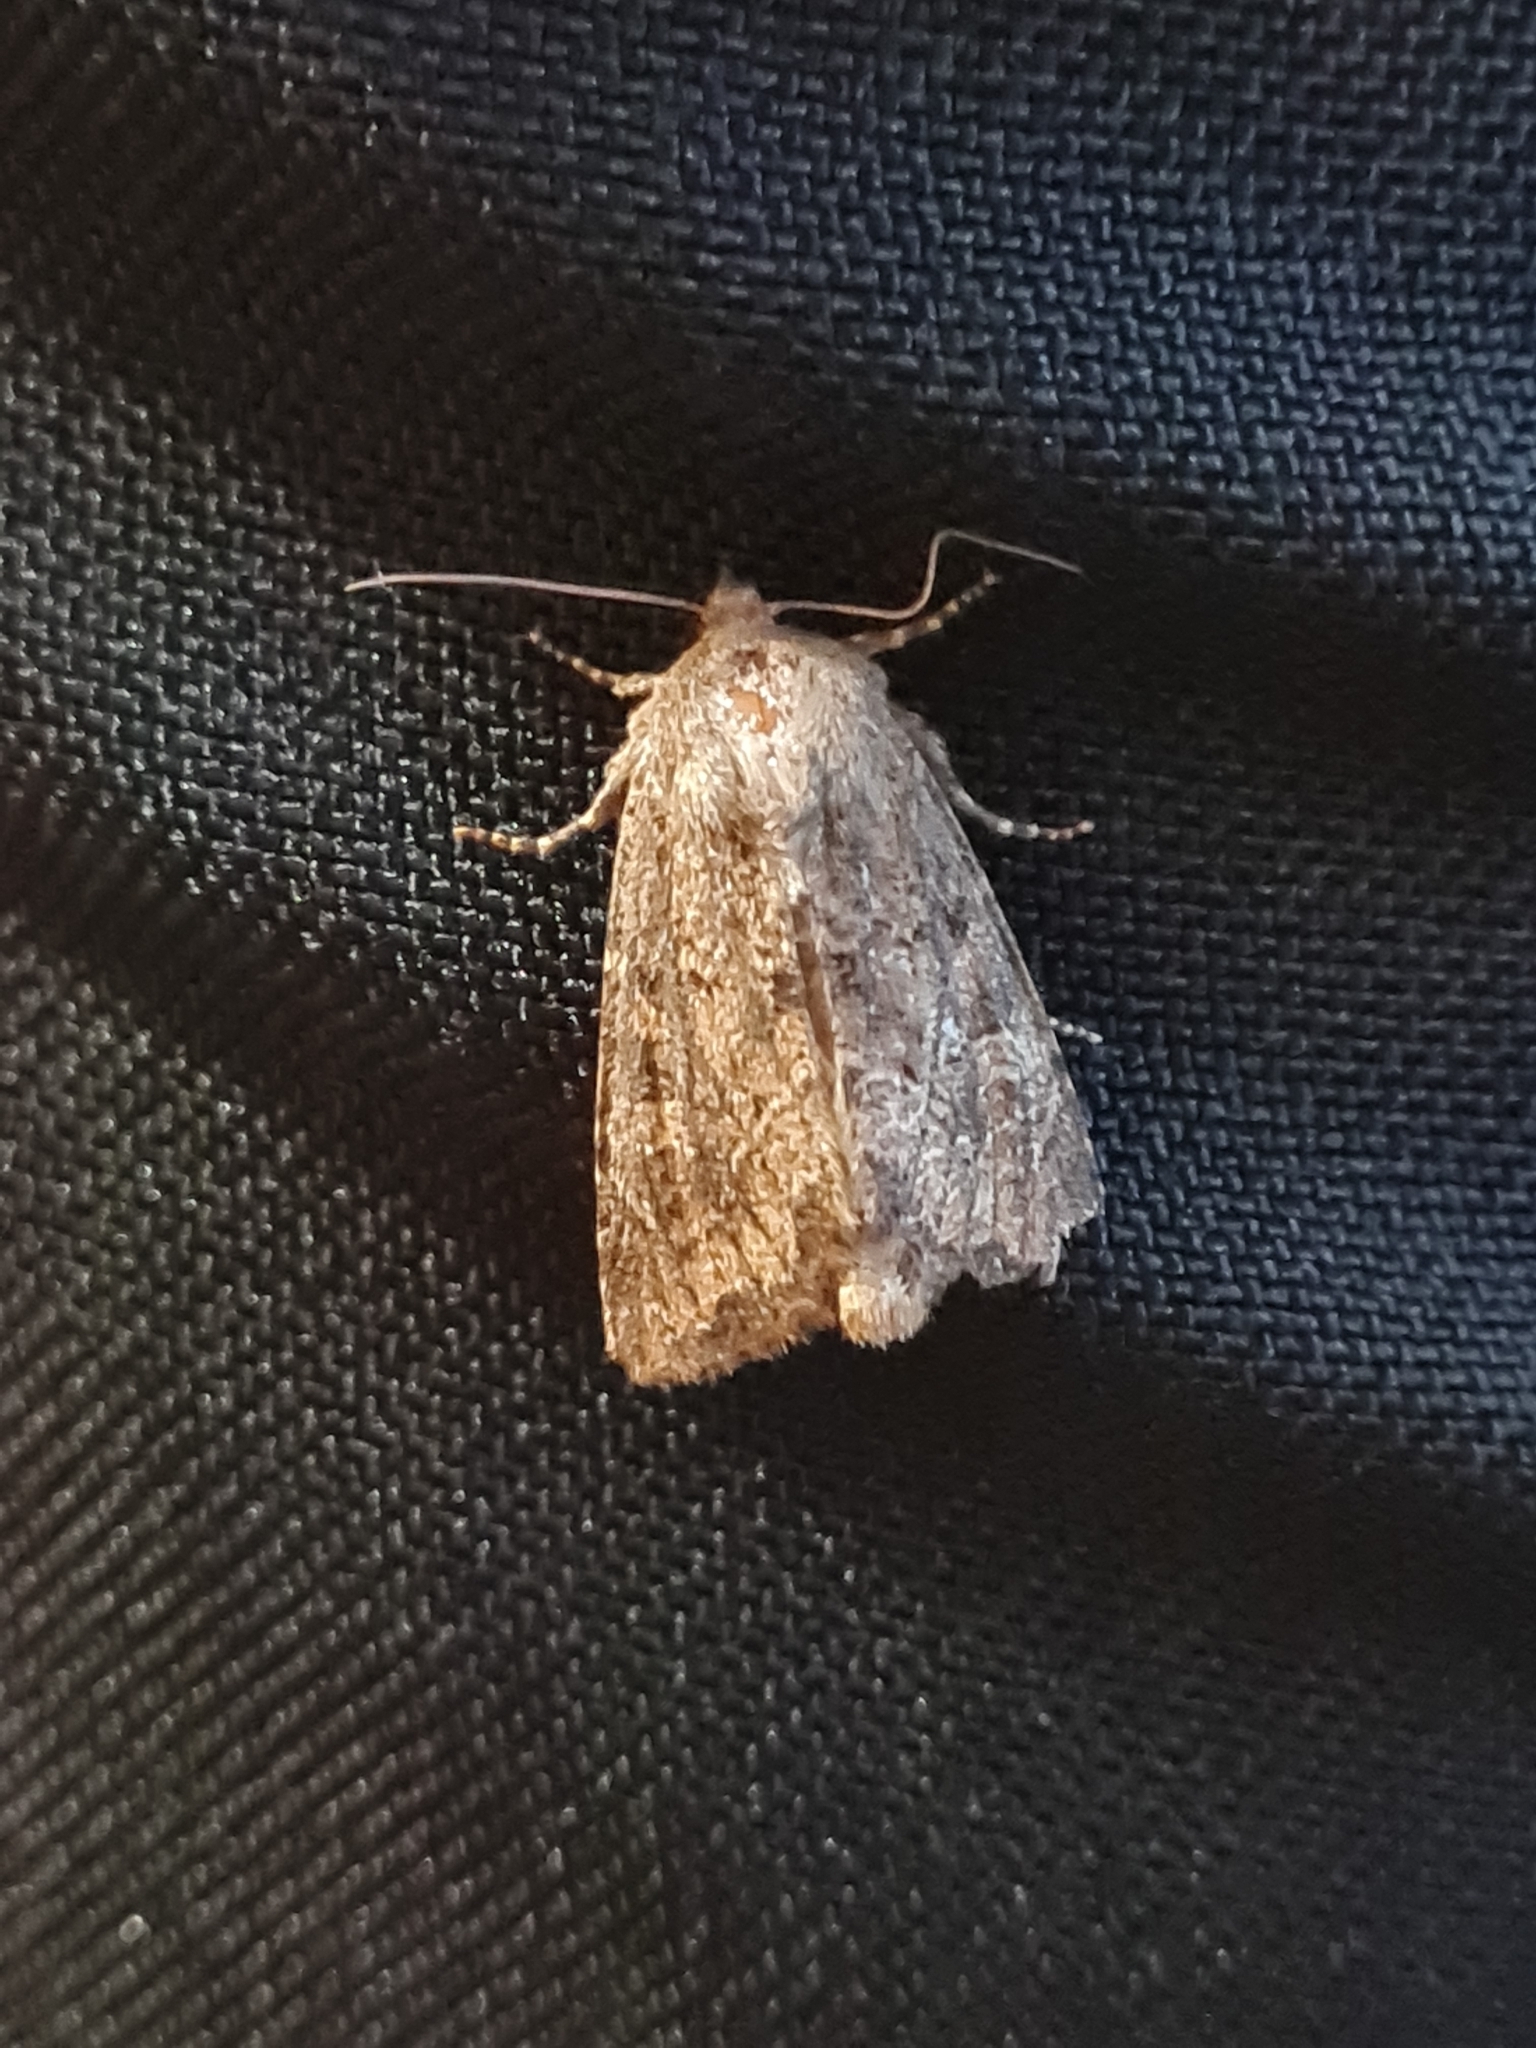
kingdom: Animalia
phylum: Arthropoda
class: Insecta
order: Lepidoptera
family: Noctuidae
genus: Luperina
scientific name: Luperina testacea
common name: Flounced rustic
